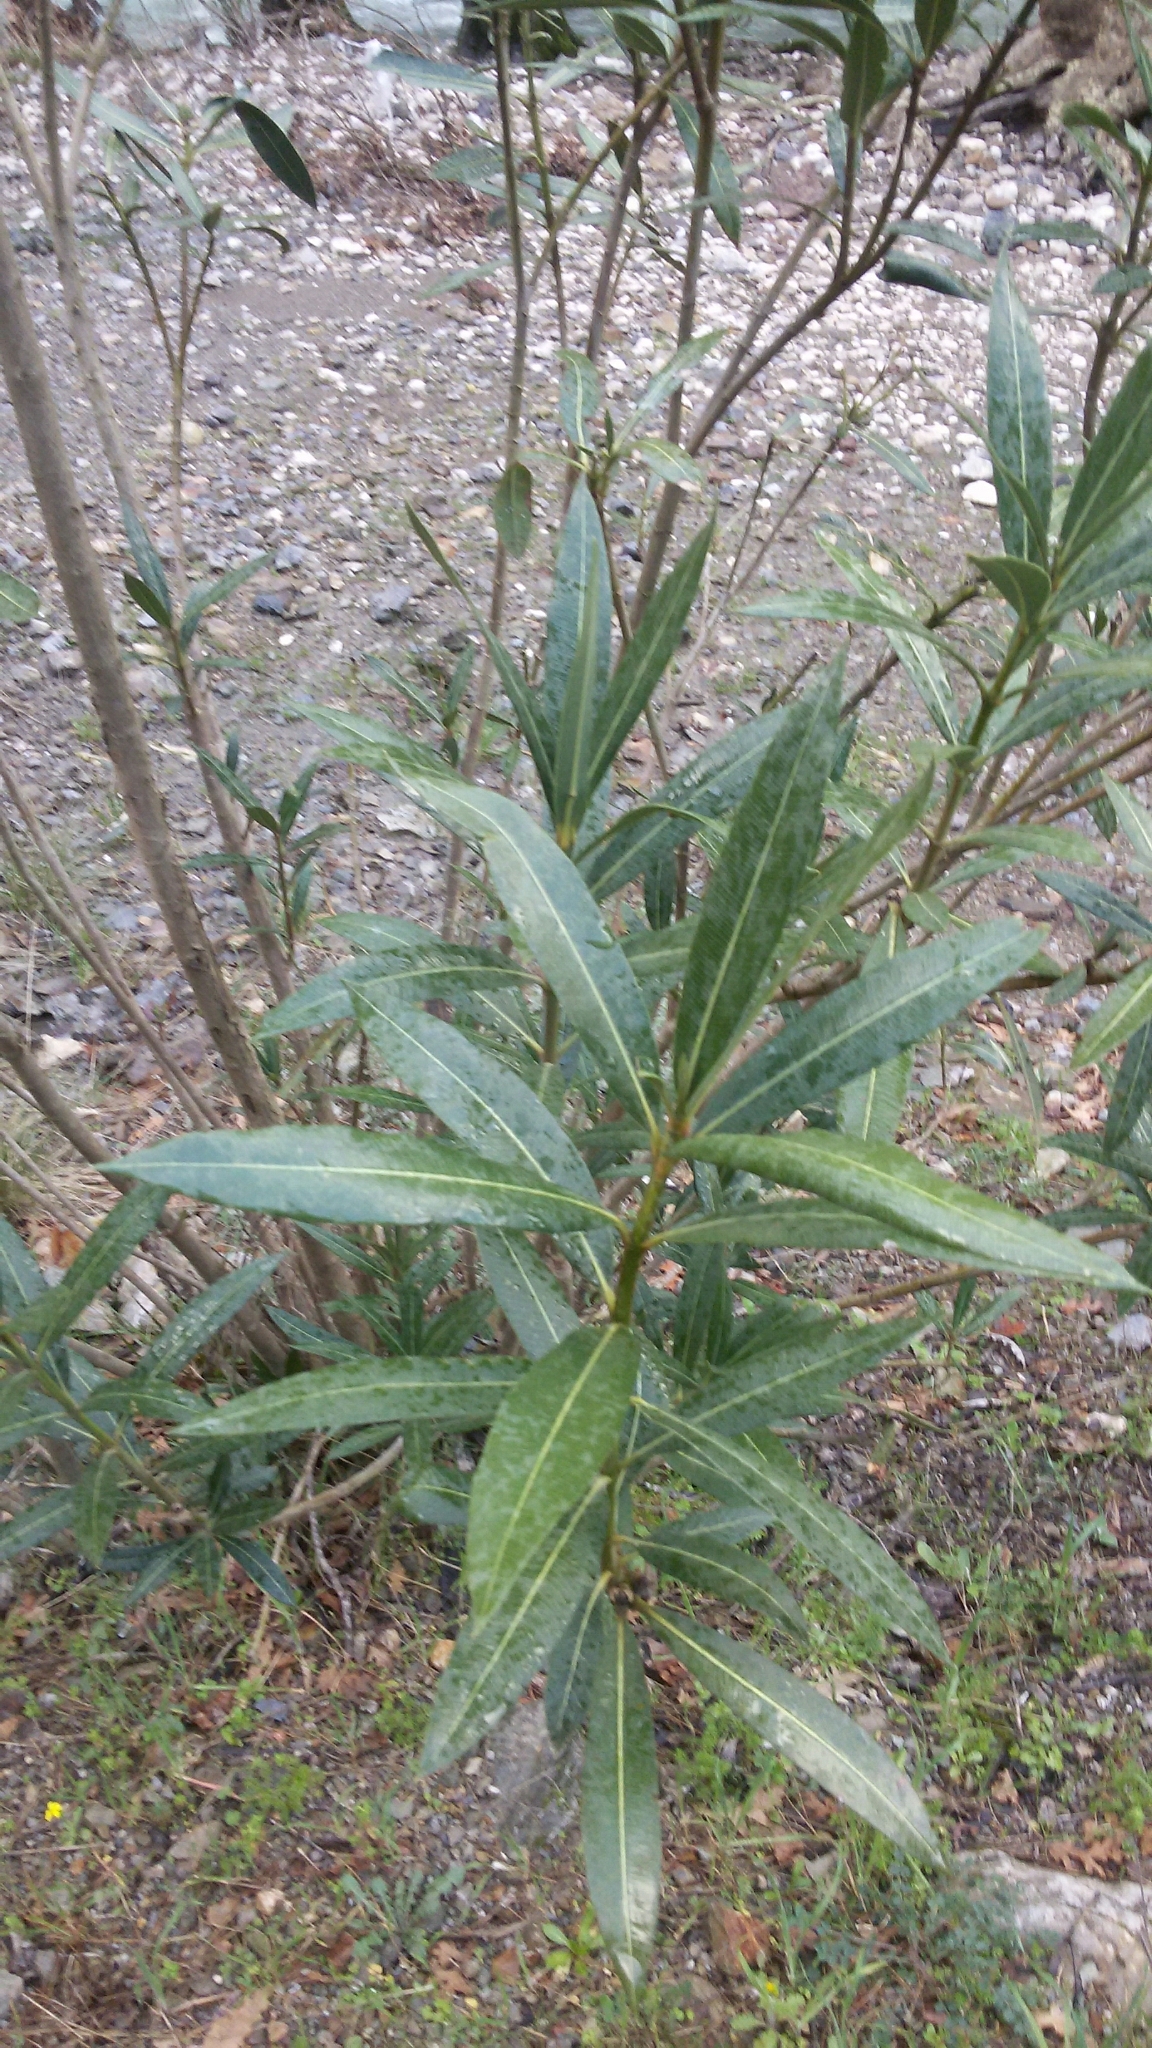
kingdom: Plantae
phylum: Tracheophyta
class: Magnoliopsida
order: Gentianales
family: Apocynaceae
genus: Nerium
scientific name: Nerium oleander
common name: Oleander
